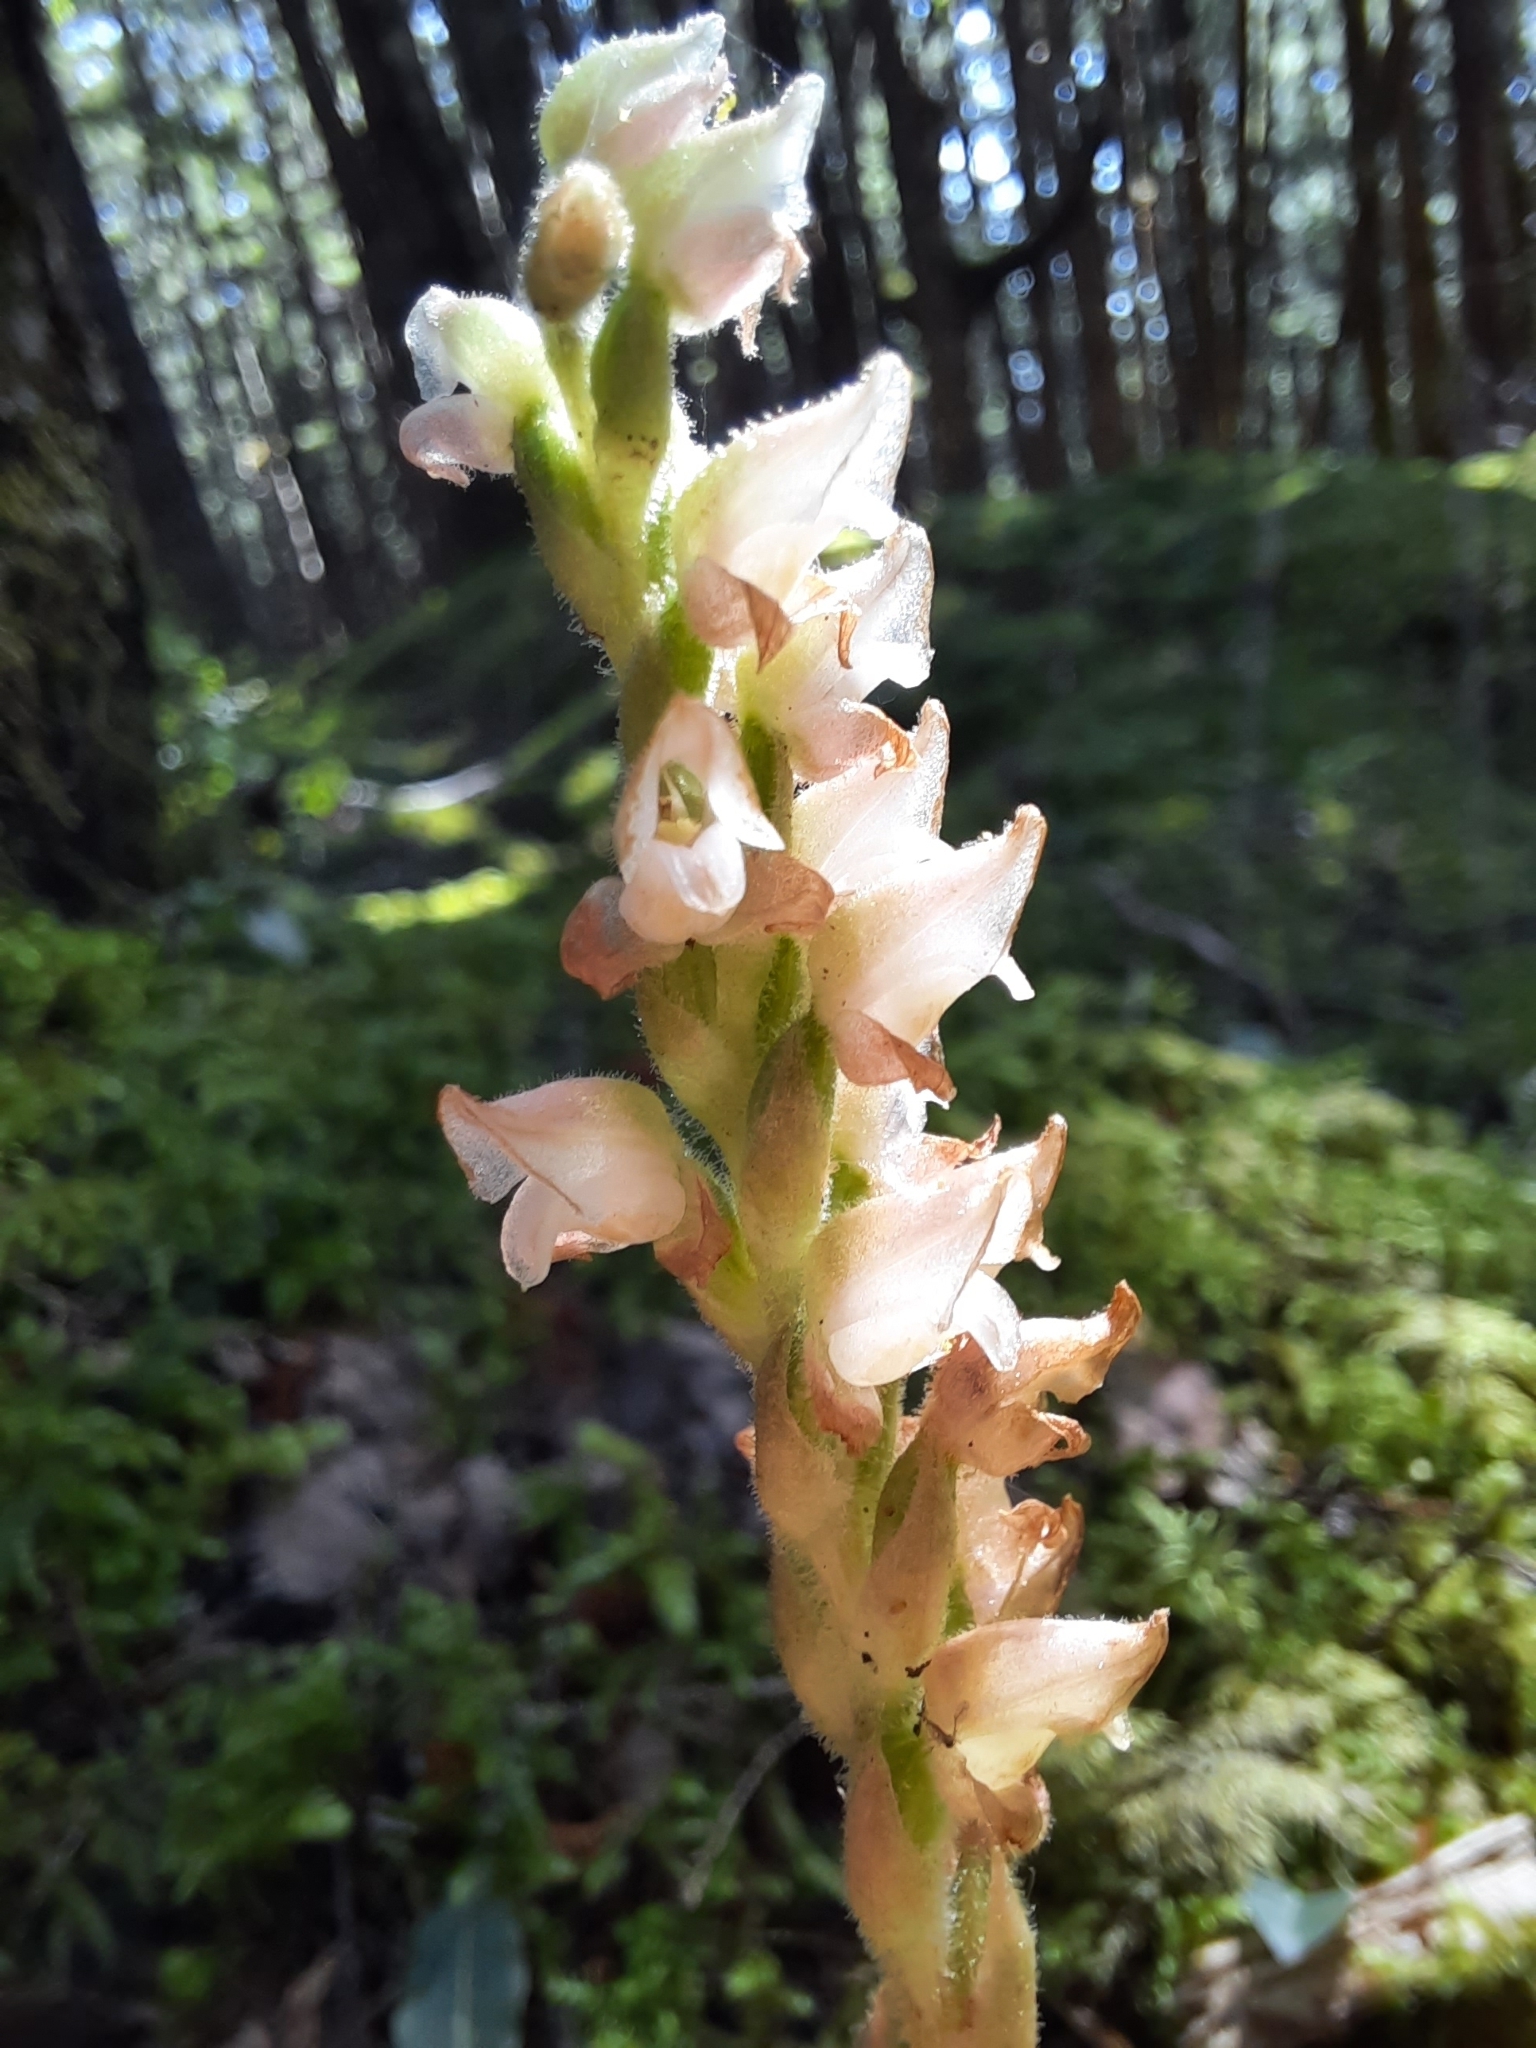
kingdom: Plantae
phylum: Tracheophyta
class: Liliopsida
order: Asparagales
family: Orchidaceae
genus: Goodyera
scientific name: Goodyera oblongifolia
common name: Giant rattlesnake-plantain
